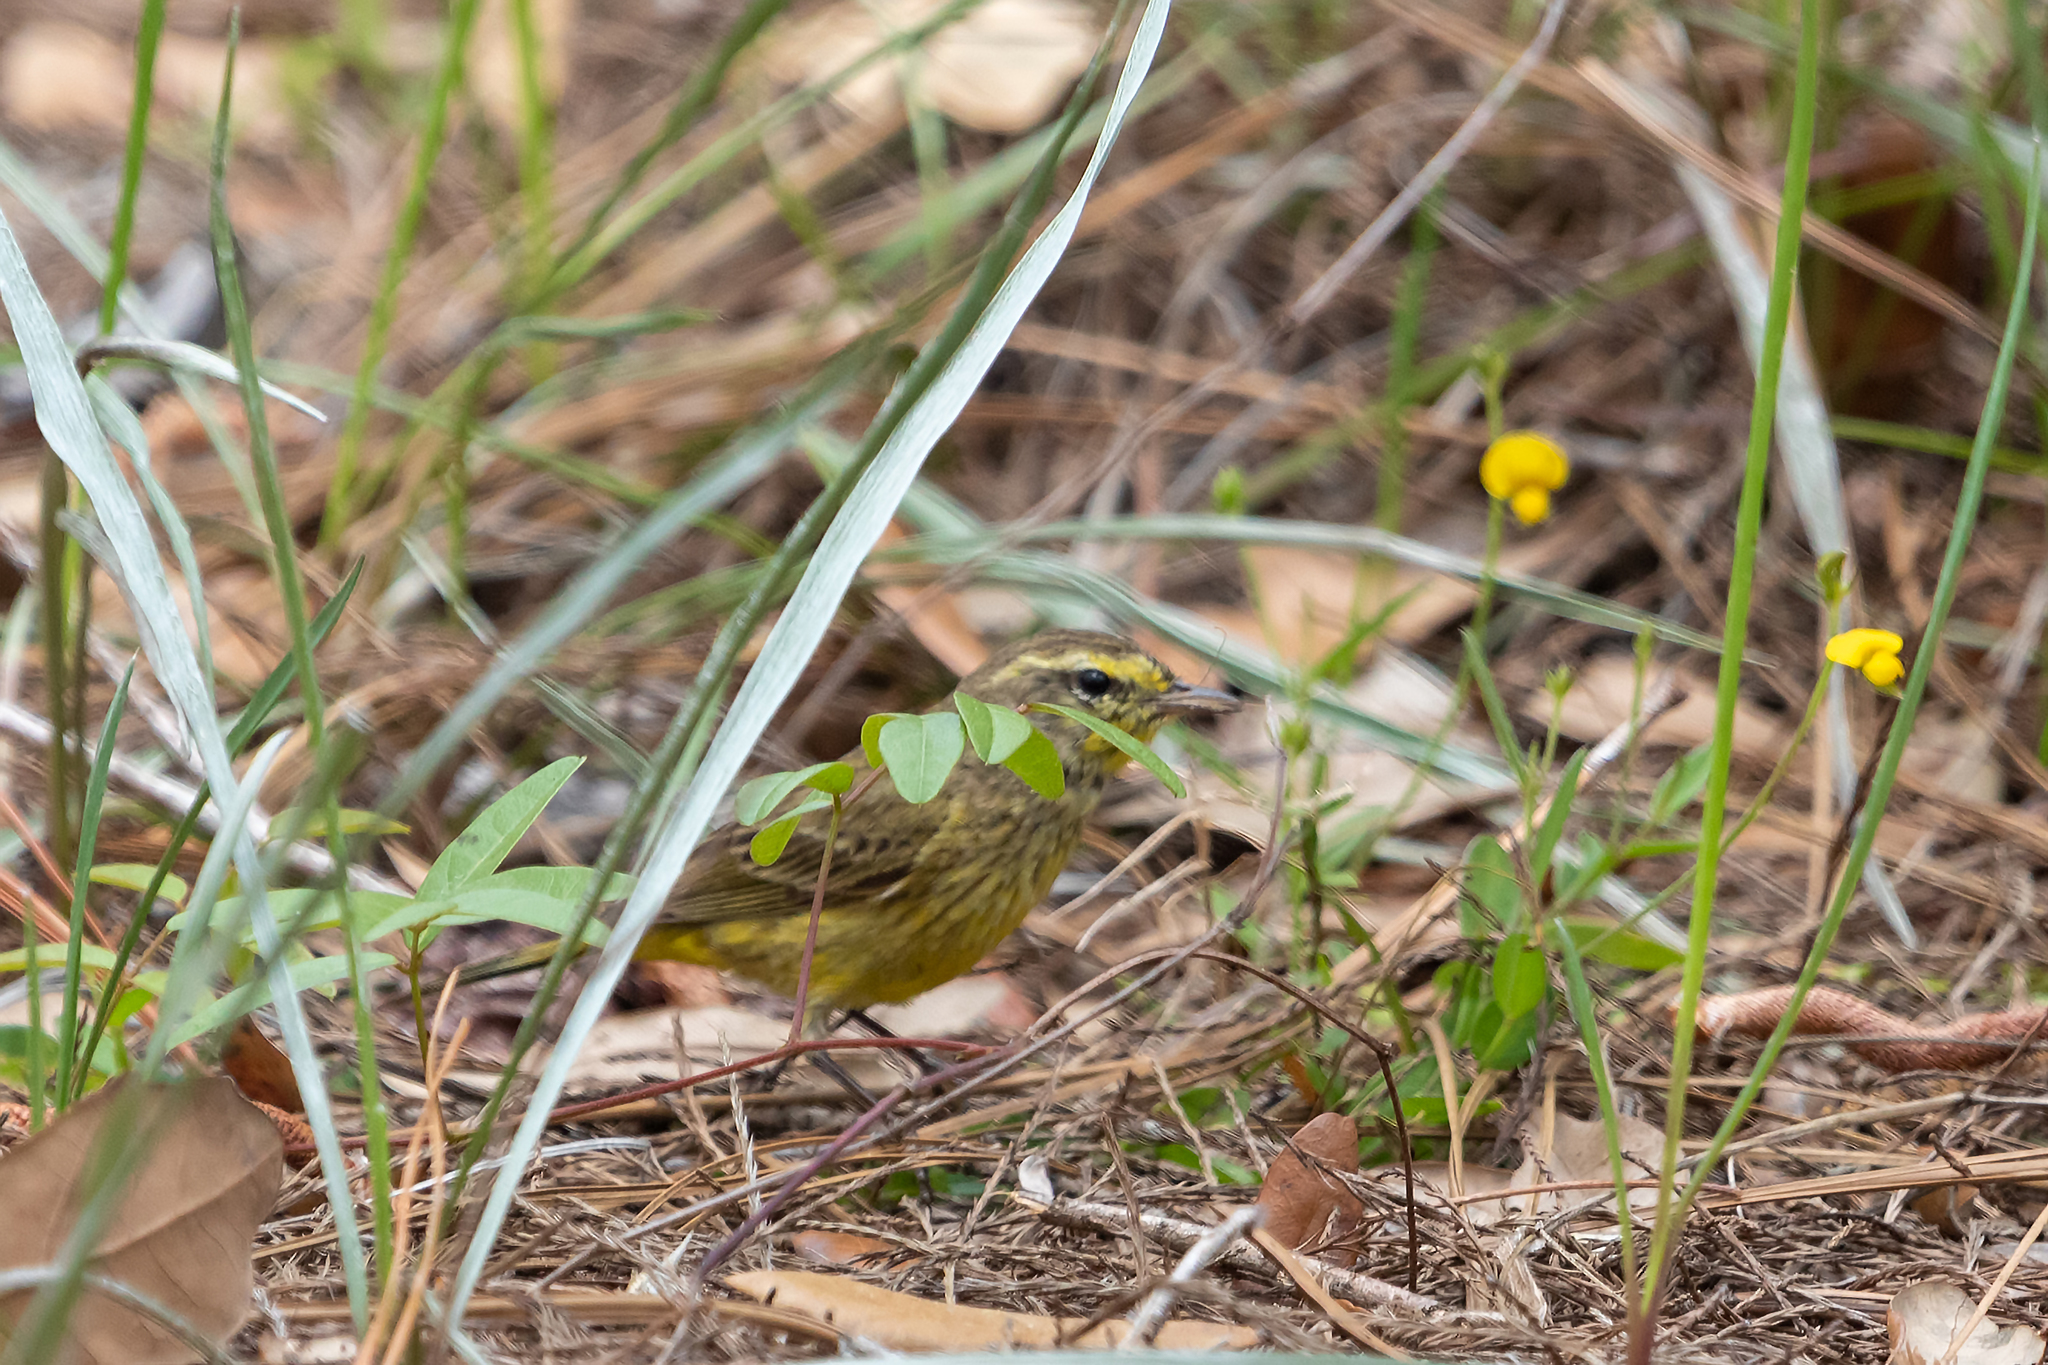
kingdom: Animalia
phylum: Chordata
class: Aves
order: Passeriformes
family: Parulidae
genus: Setophaga
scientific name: Setophaga palmarum
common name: Palm warbler
